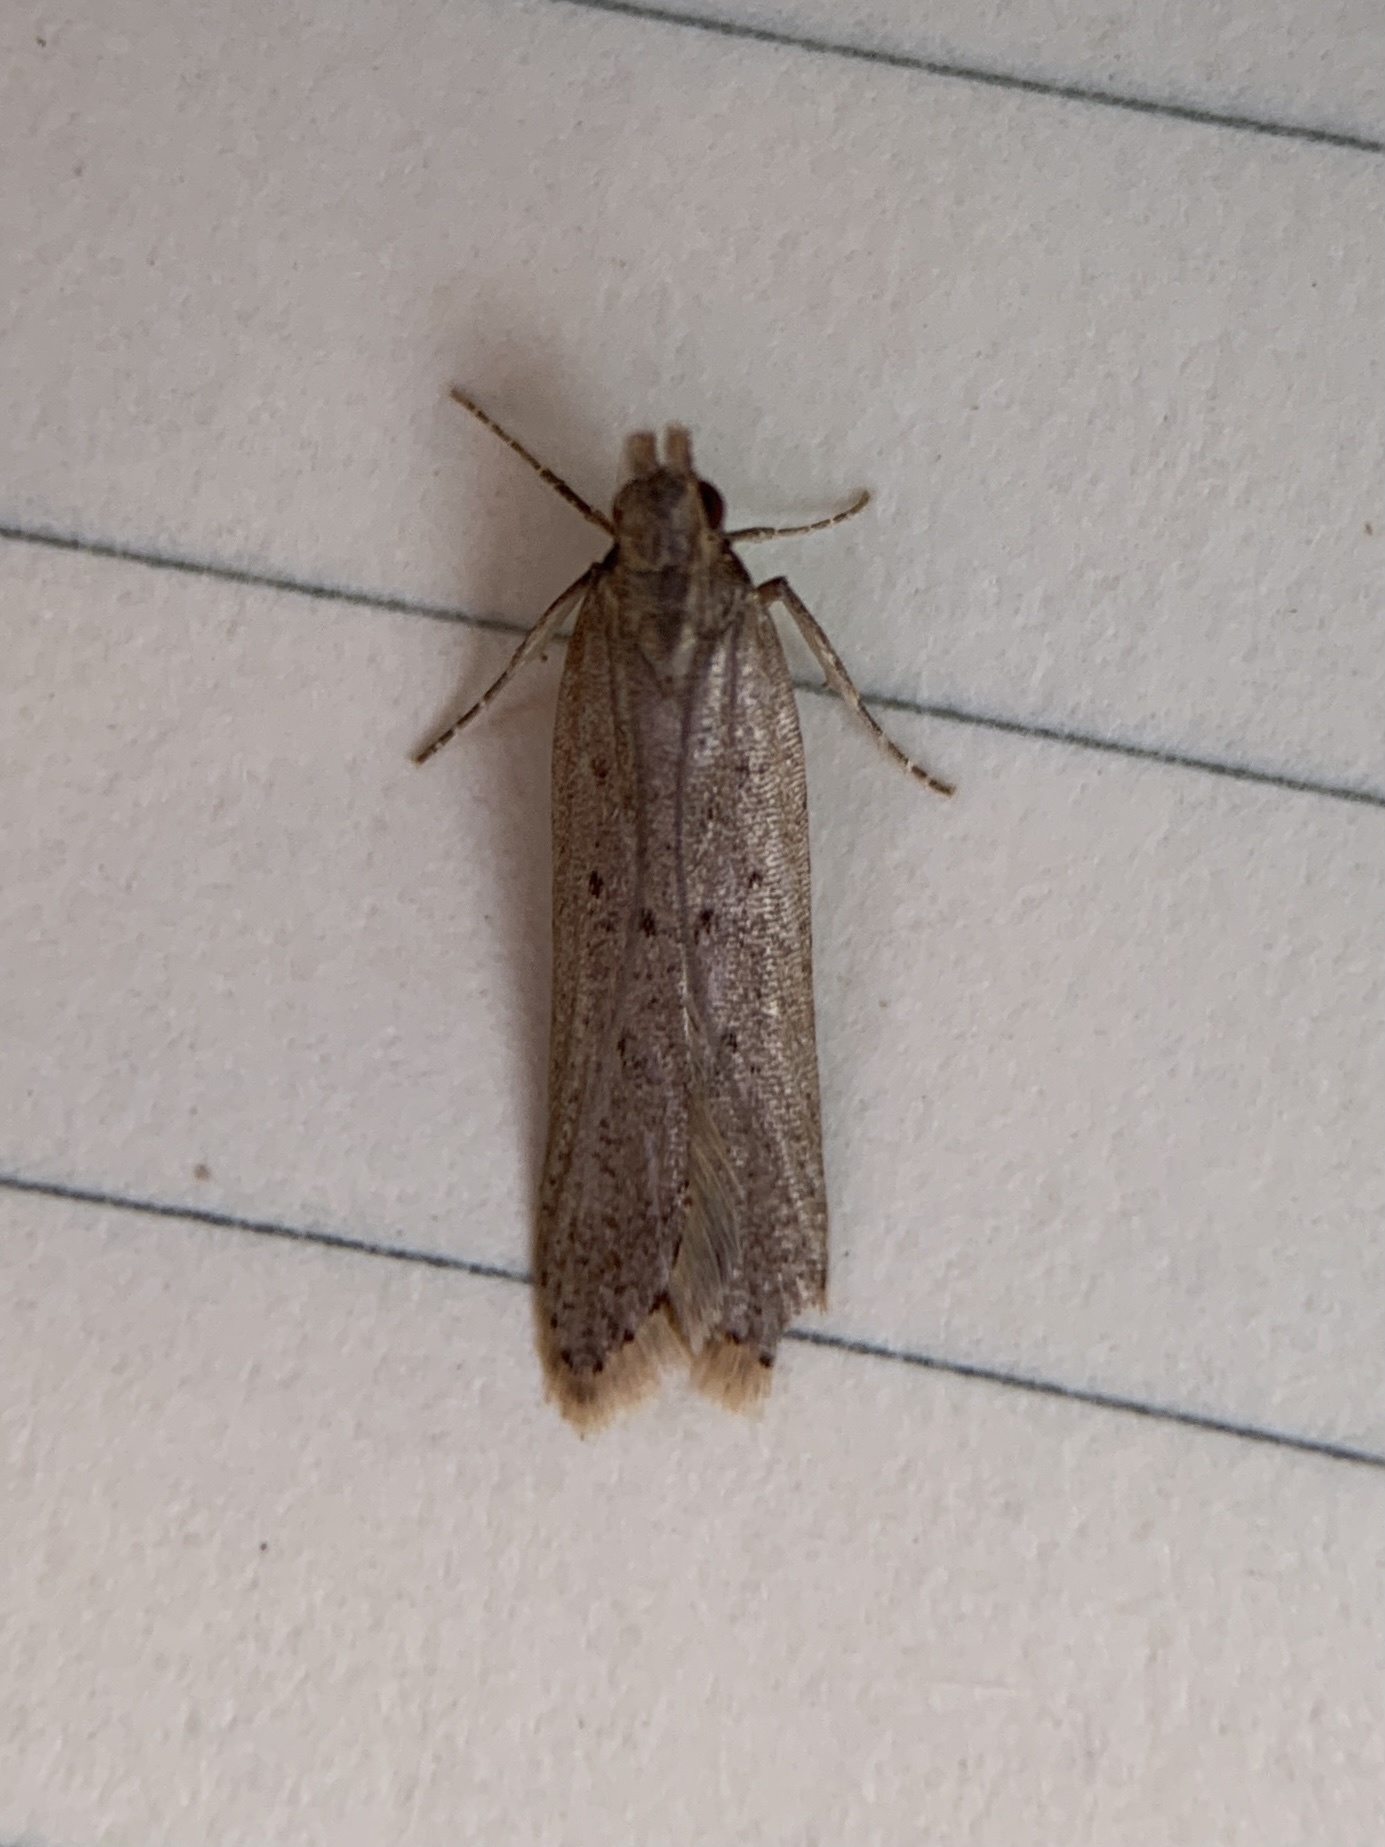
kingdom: Animalia
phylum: Arthropoda
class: Insecta
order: Lepidoptera
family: Gelechiidae
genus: Dichomeris
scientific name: Dichomeris ligulella
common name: Moth
